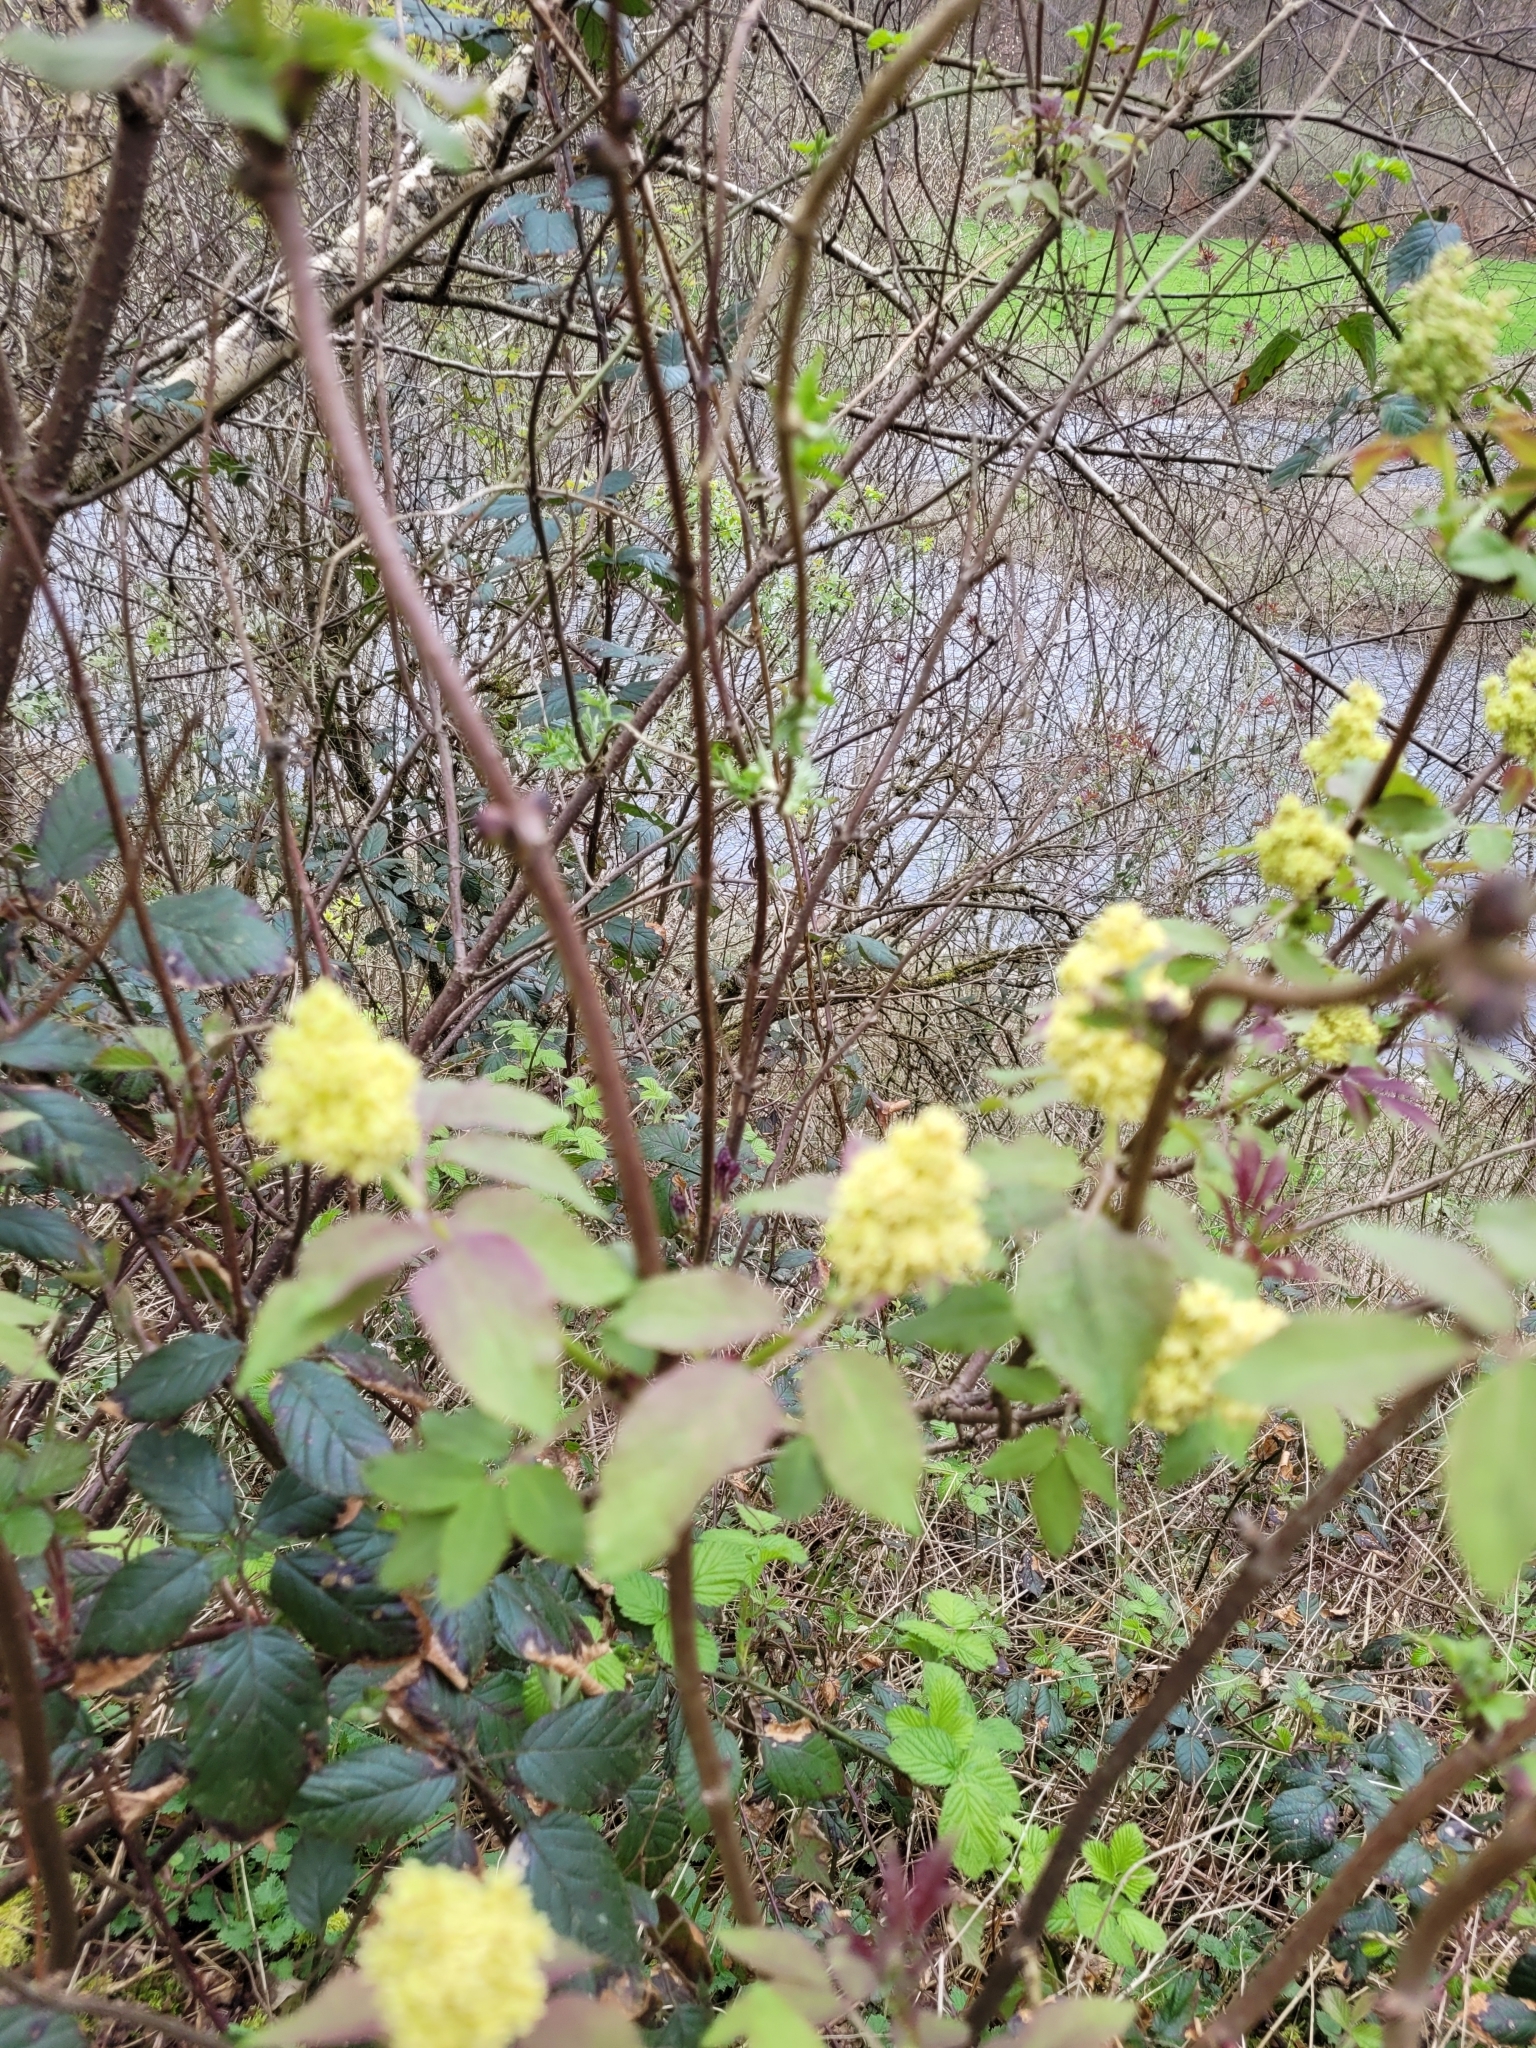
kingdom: Plantae
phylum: Tracheophyta
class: Magnoliopsida
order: Dipsacales
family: Viburnaceae
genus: Sambucus
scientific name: Sambucus racemosa
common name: Red-berried elder
